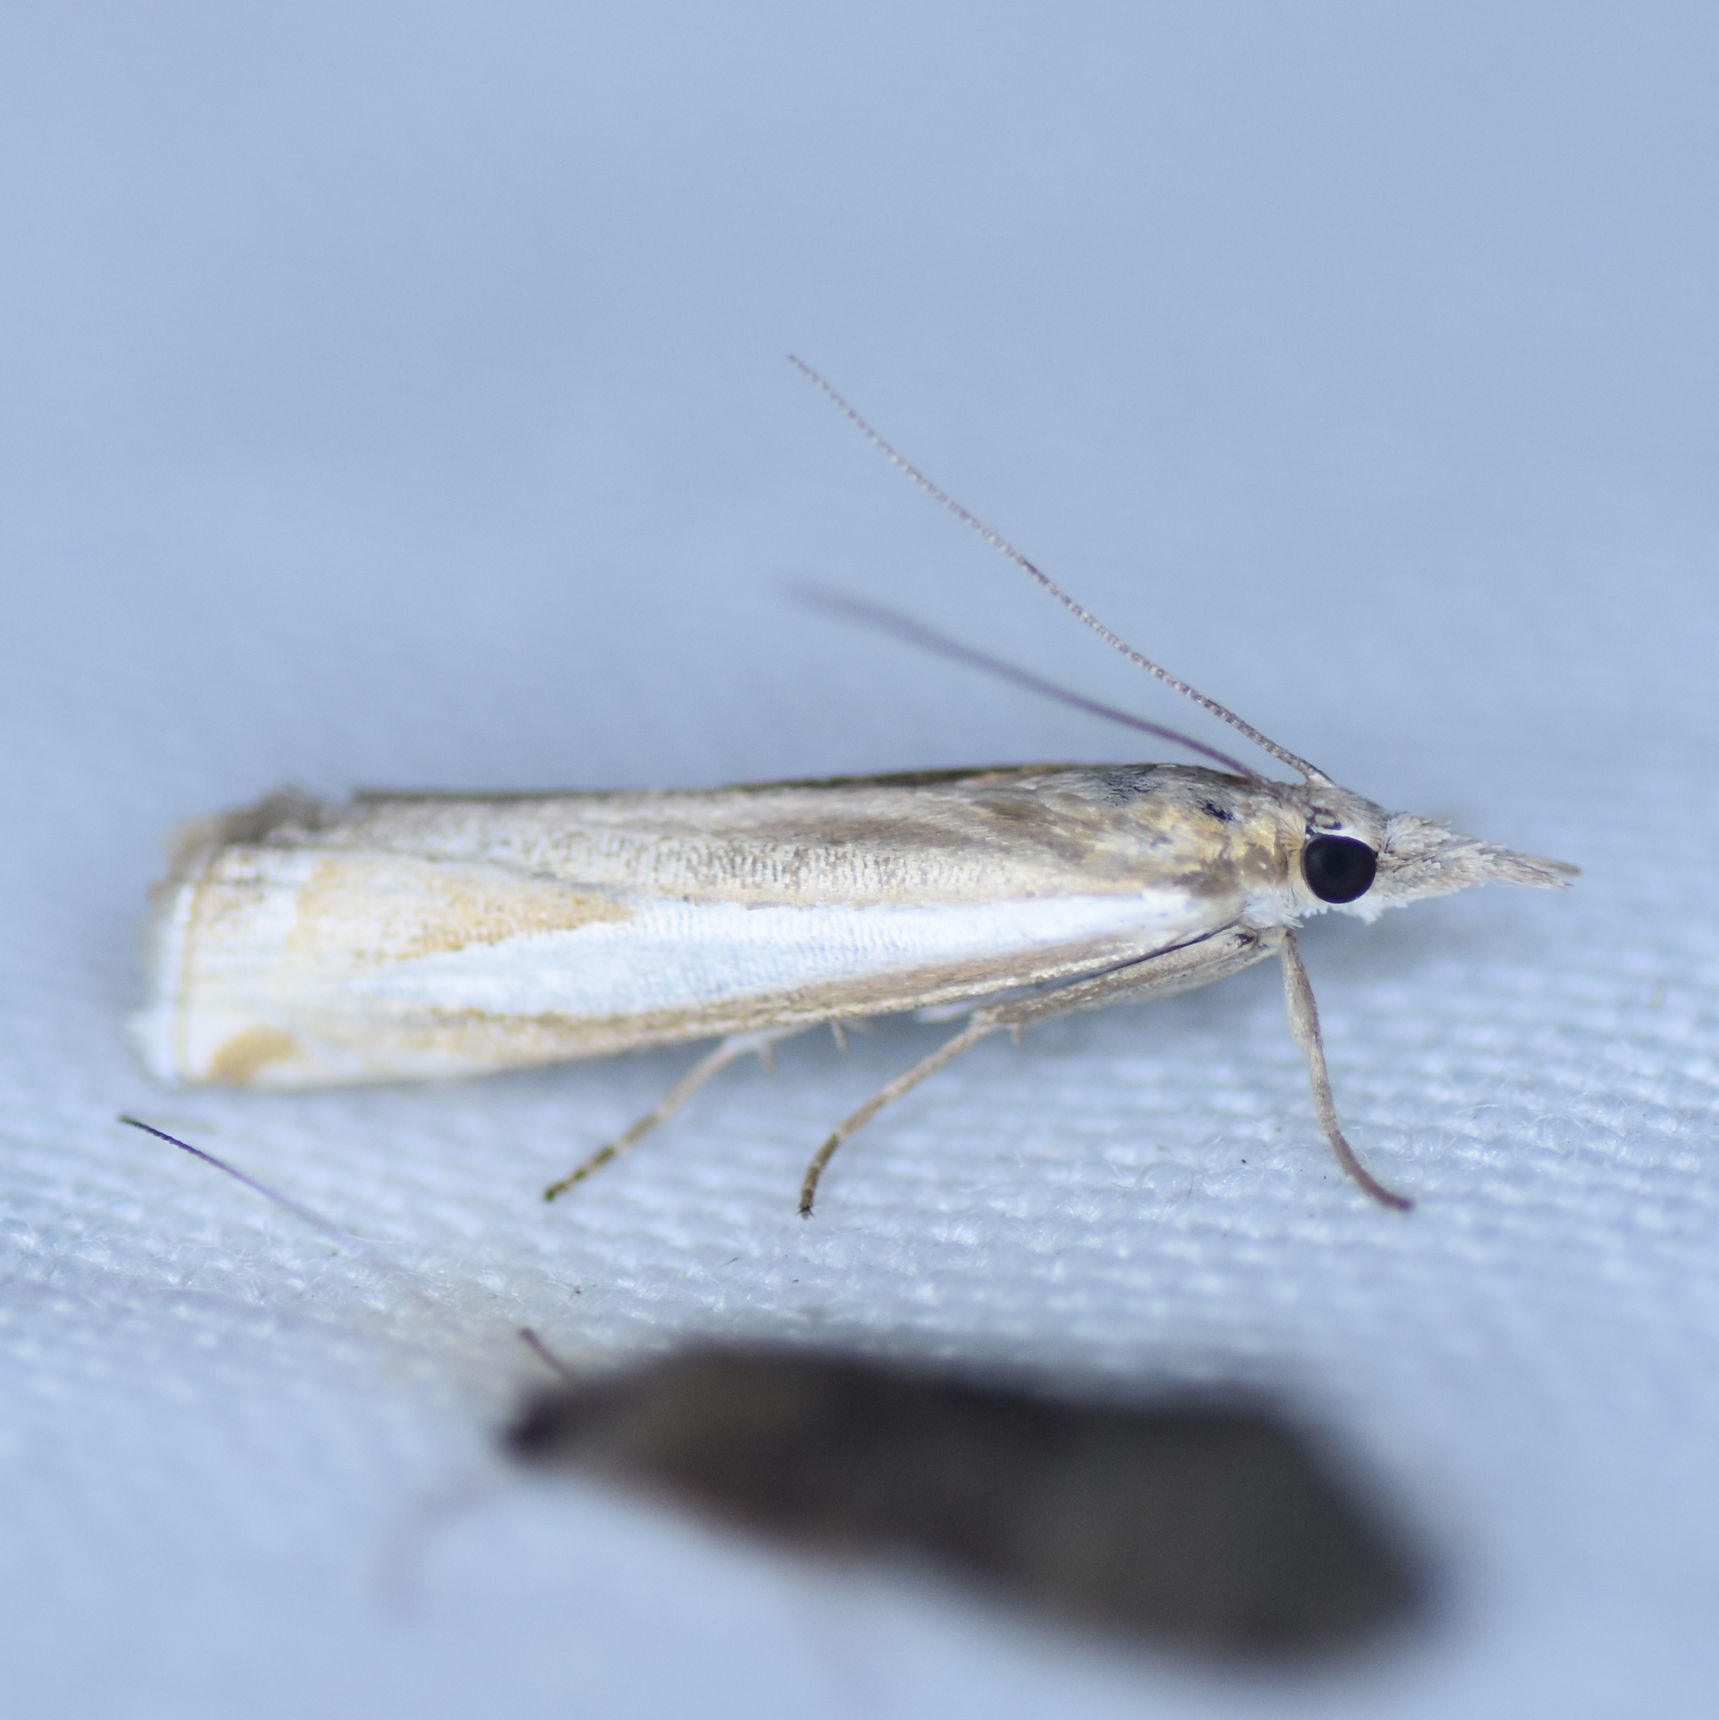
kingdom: Animalia
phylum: Arthropoda
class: Insecta
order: Lepidoptera
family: Crambidae
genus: Crambus
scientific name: Crambus praefectellus
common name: Common grass-veneer
